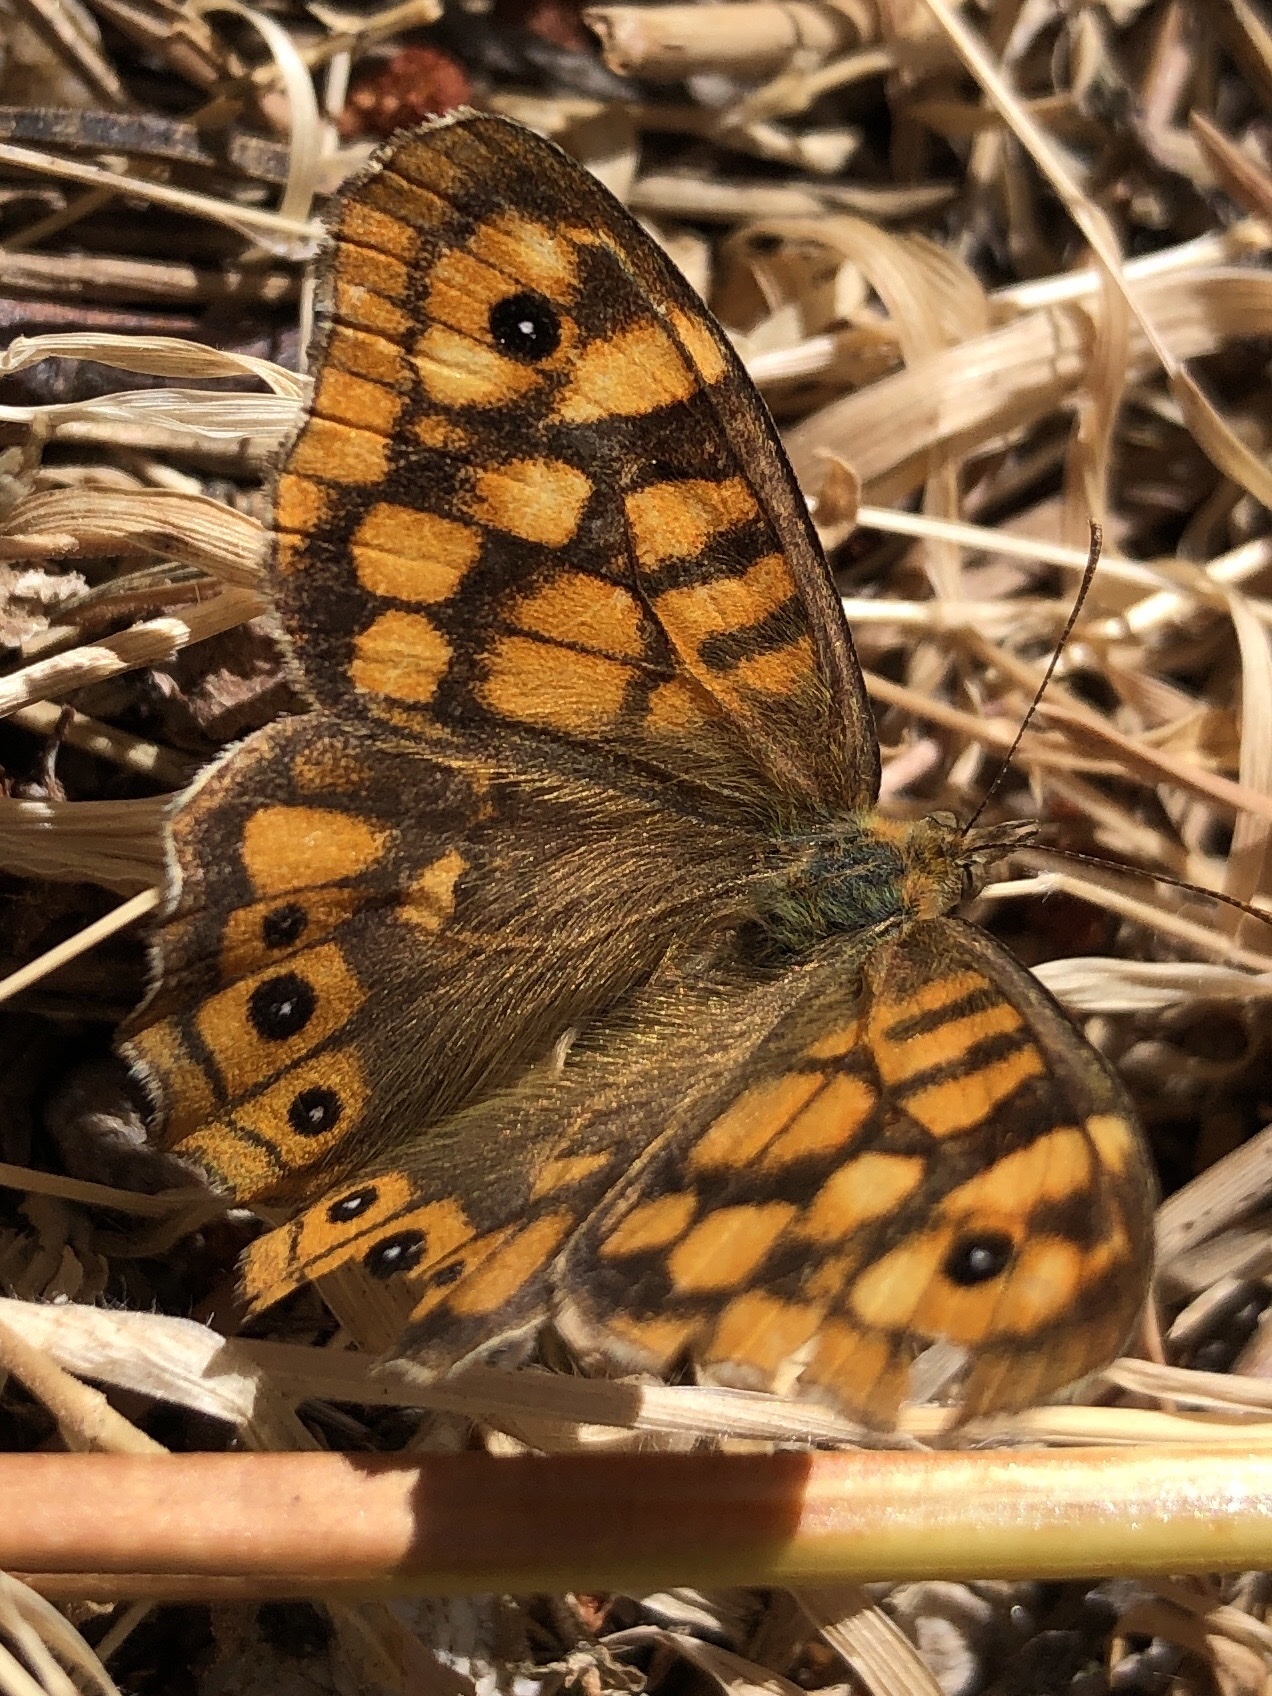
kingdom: Animalia
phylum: Arthropoda
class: Insecta
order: Lepidoptera
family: Nymphalidae
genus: Pararge
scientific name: Pararge aegeria
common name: Speckled wood
